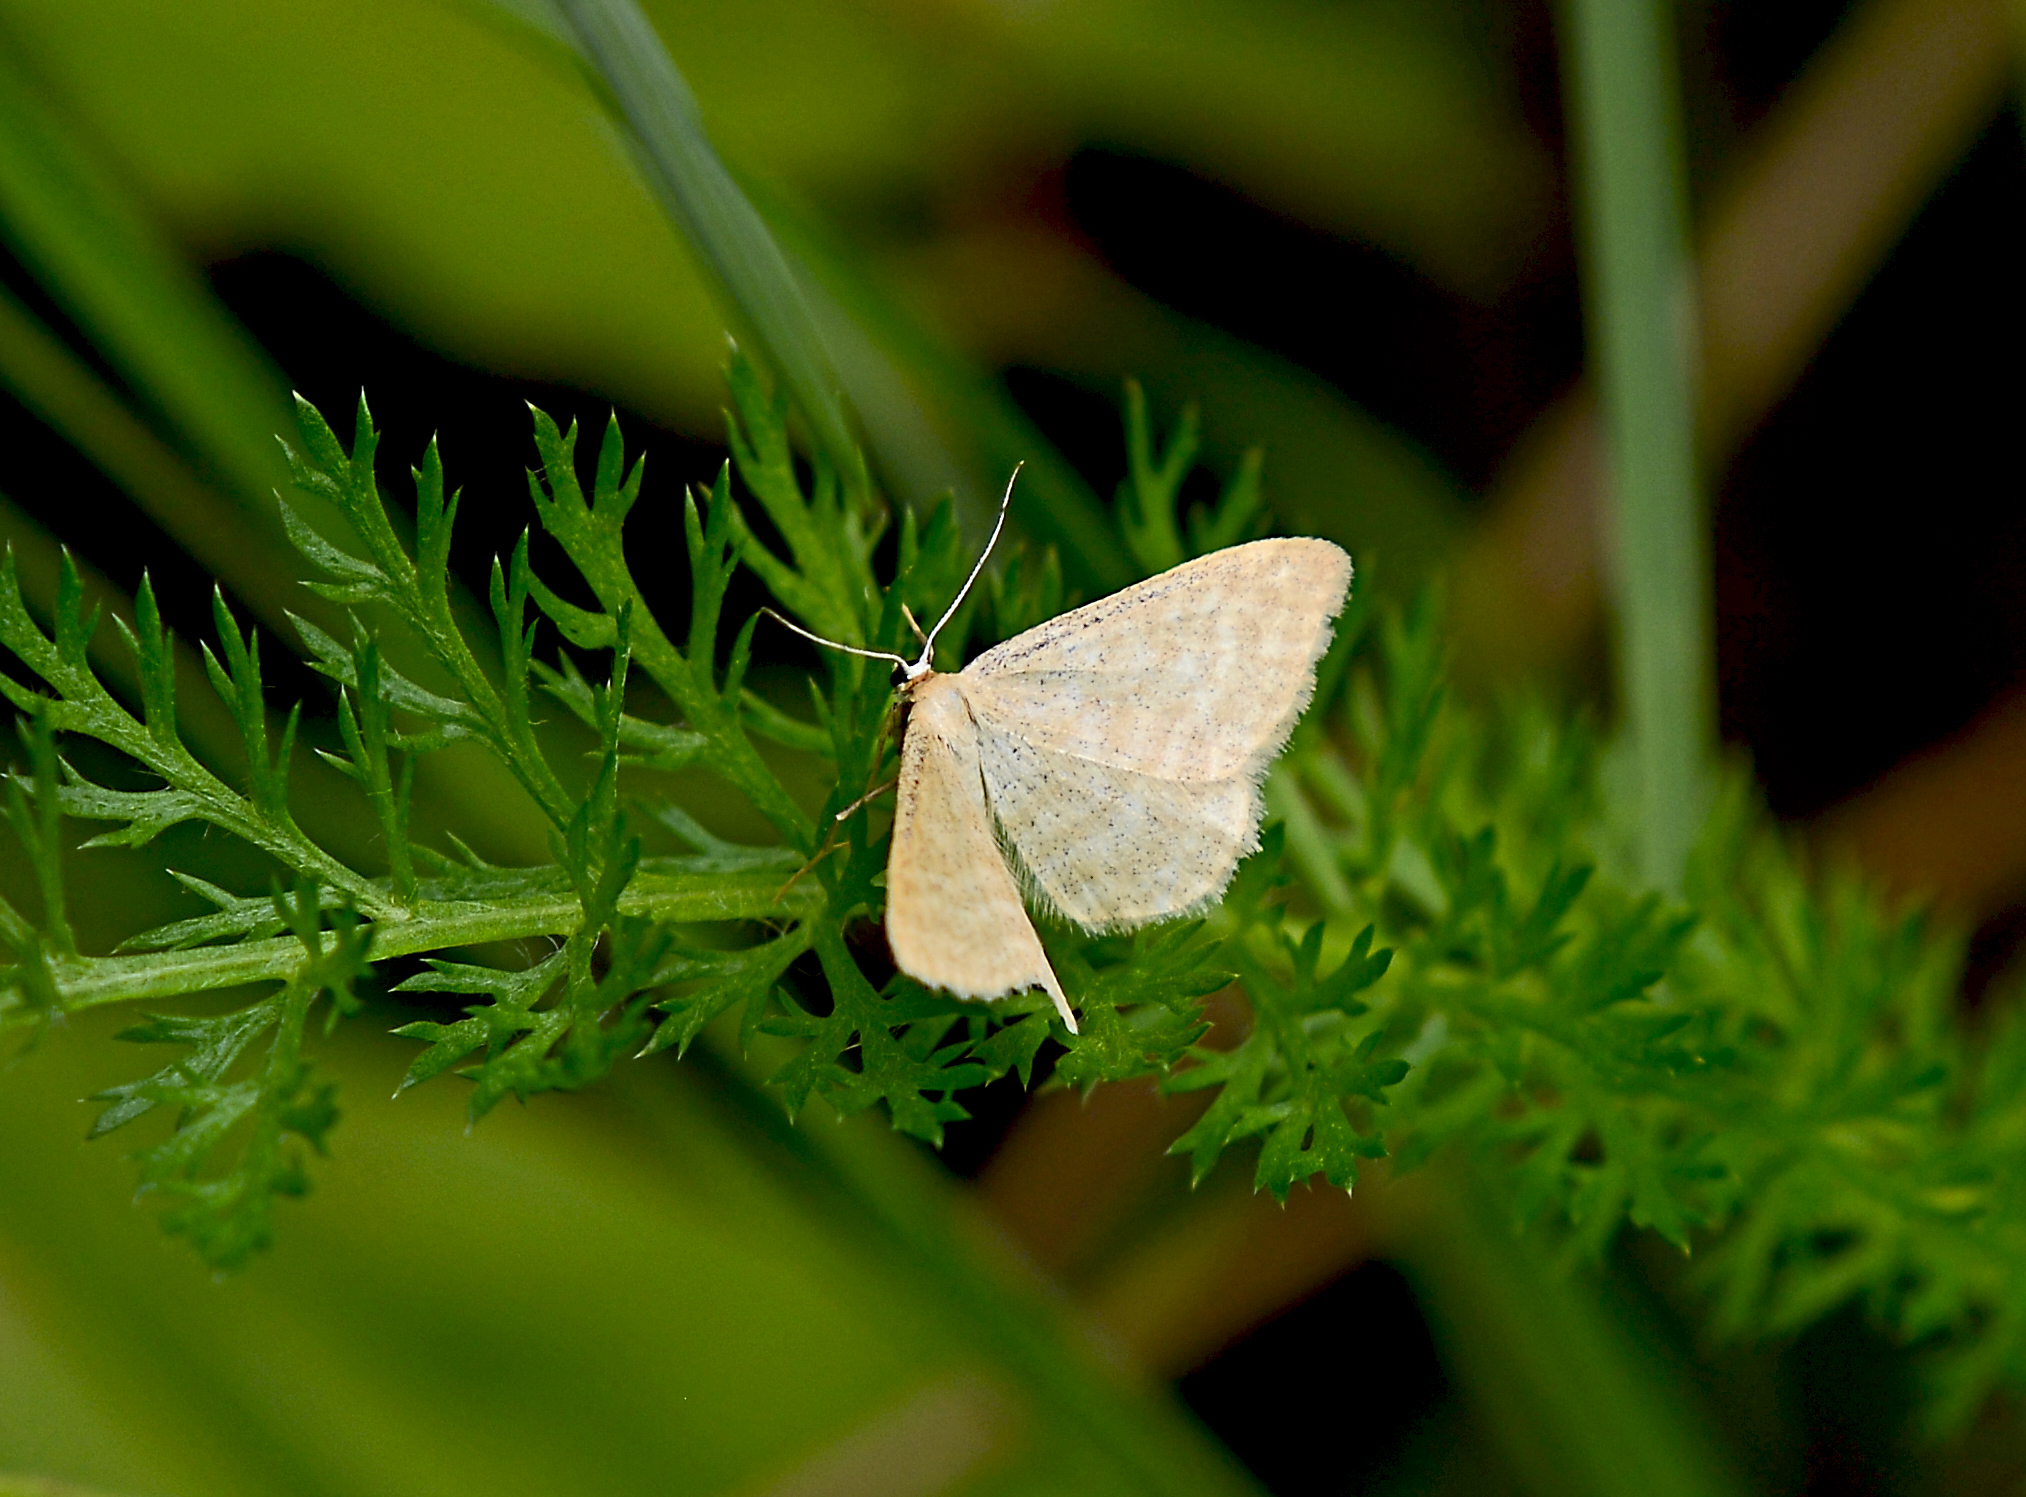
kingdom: Animalia
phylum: Arthropoda
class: Insecta
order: Lepidoptera
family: Geometridae
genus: Scopula
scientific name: Scopula immorata
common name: Lewes wave
